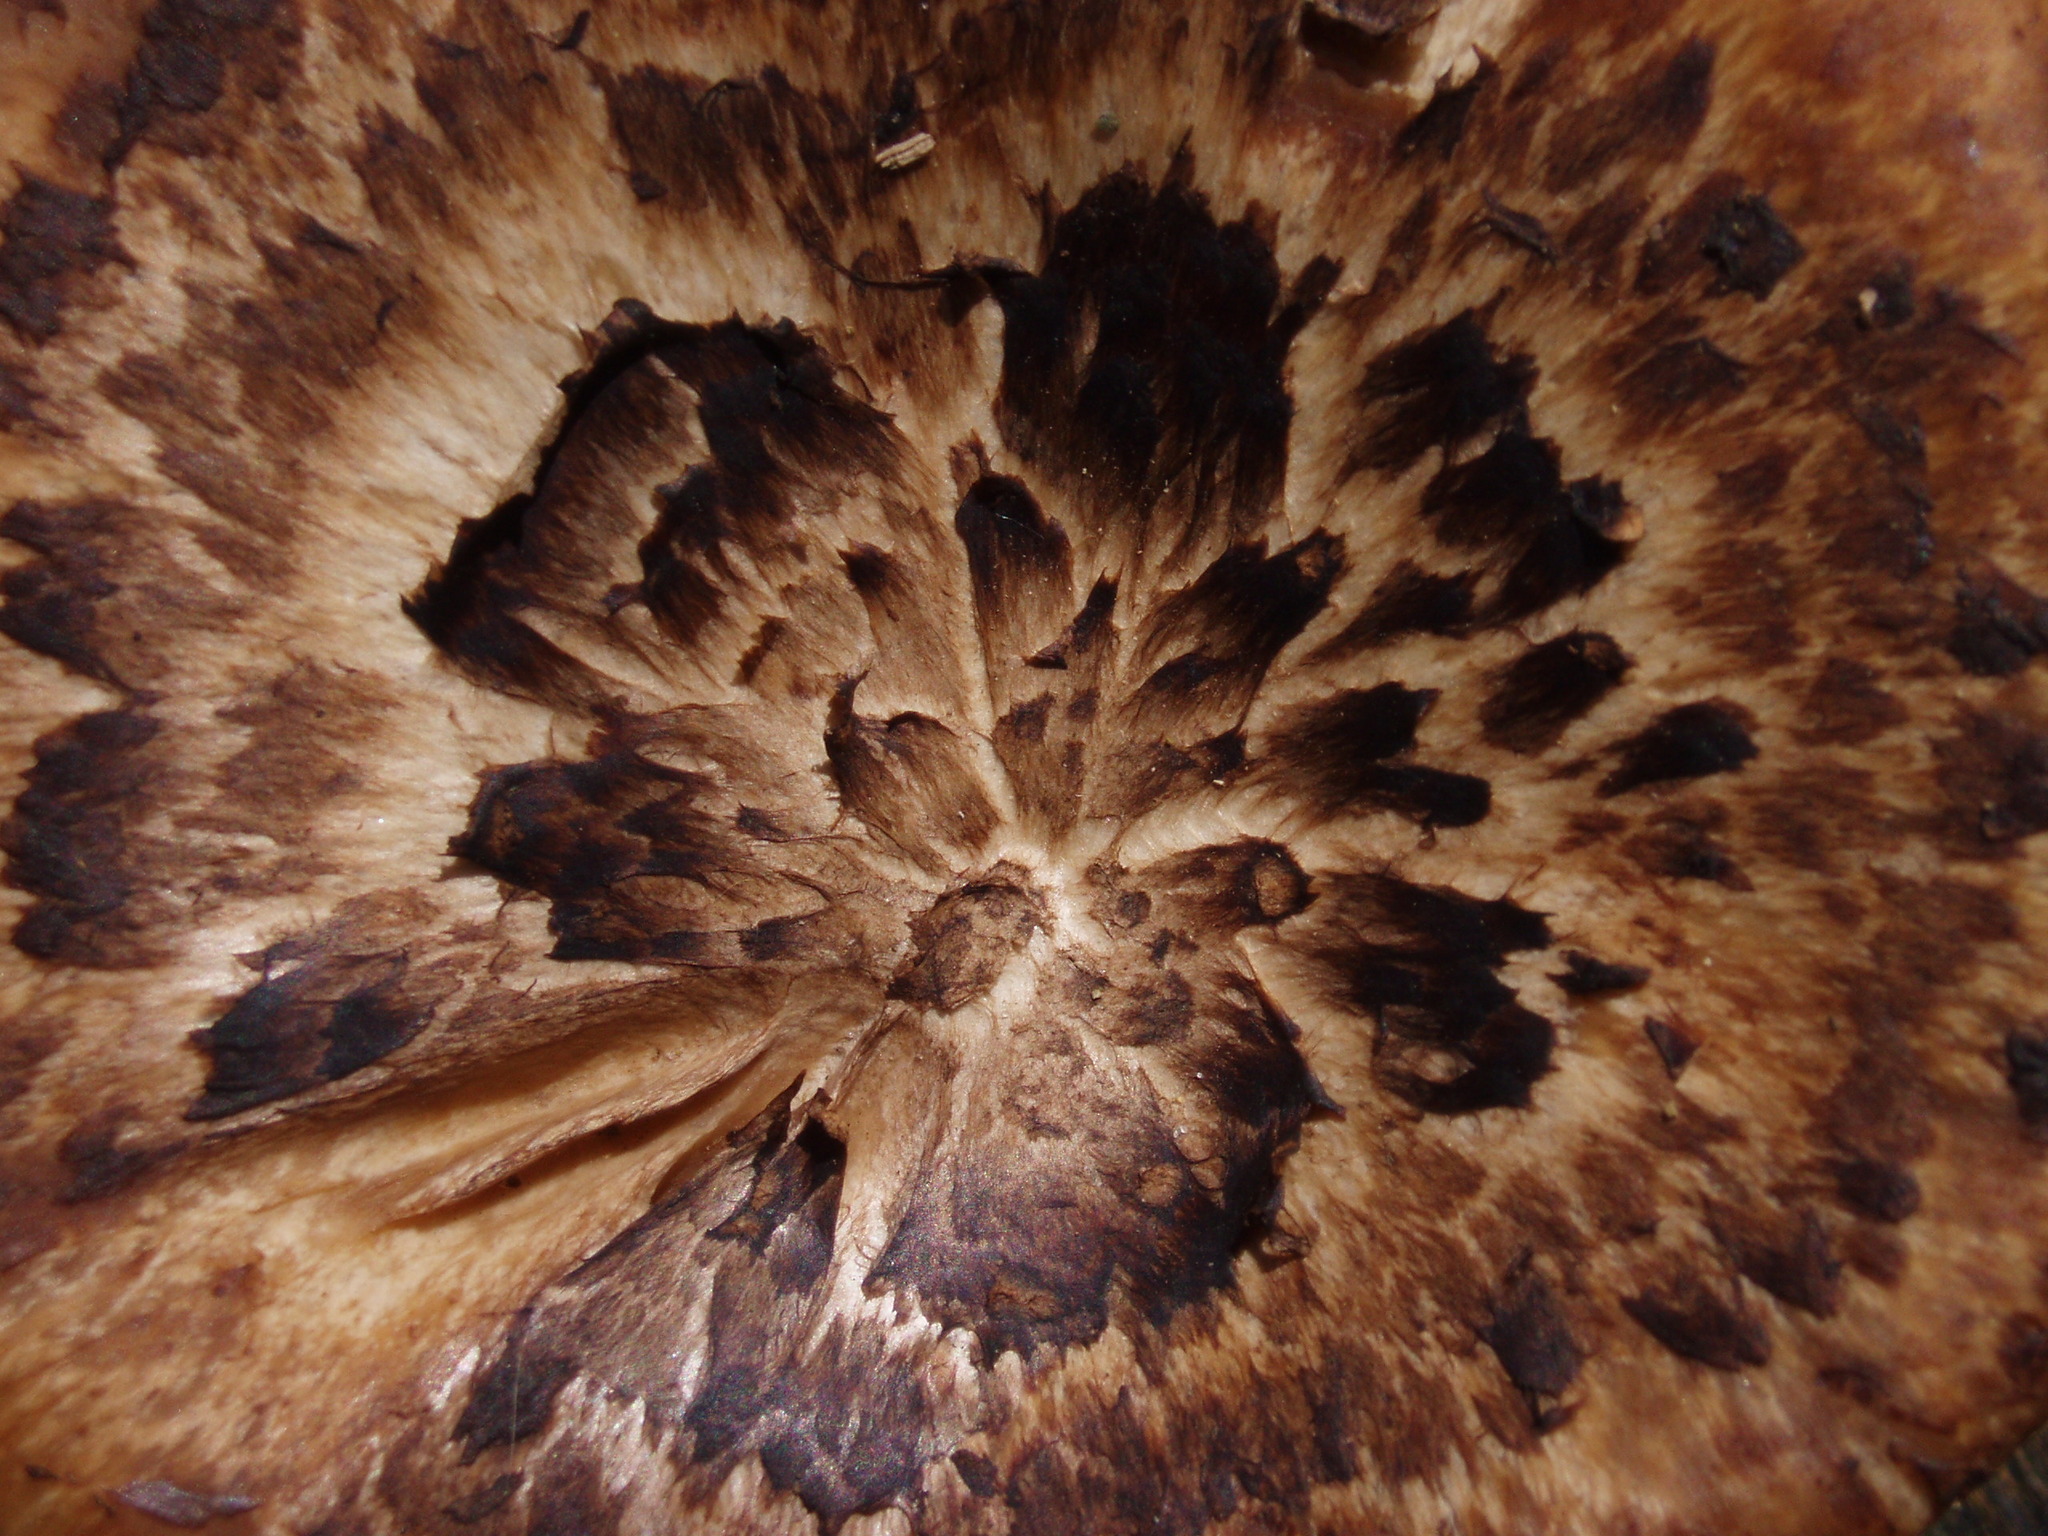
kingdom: Fungi
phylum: Basidiomycota
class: Agaricomycetes
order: Polyporales
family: Polyporaceae
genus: Cerioporus
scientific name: Cerioporus squamosus
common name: Dryad's saddle
